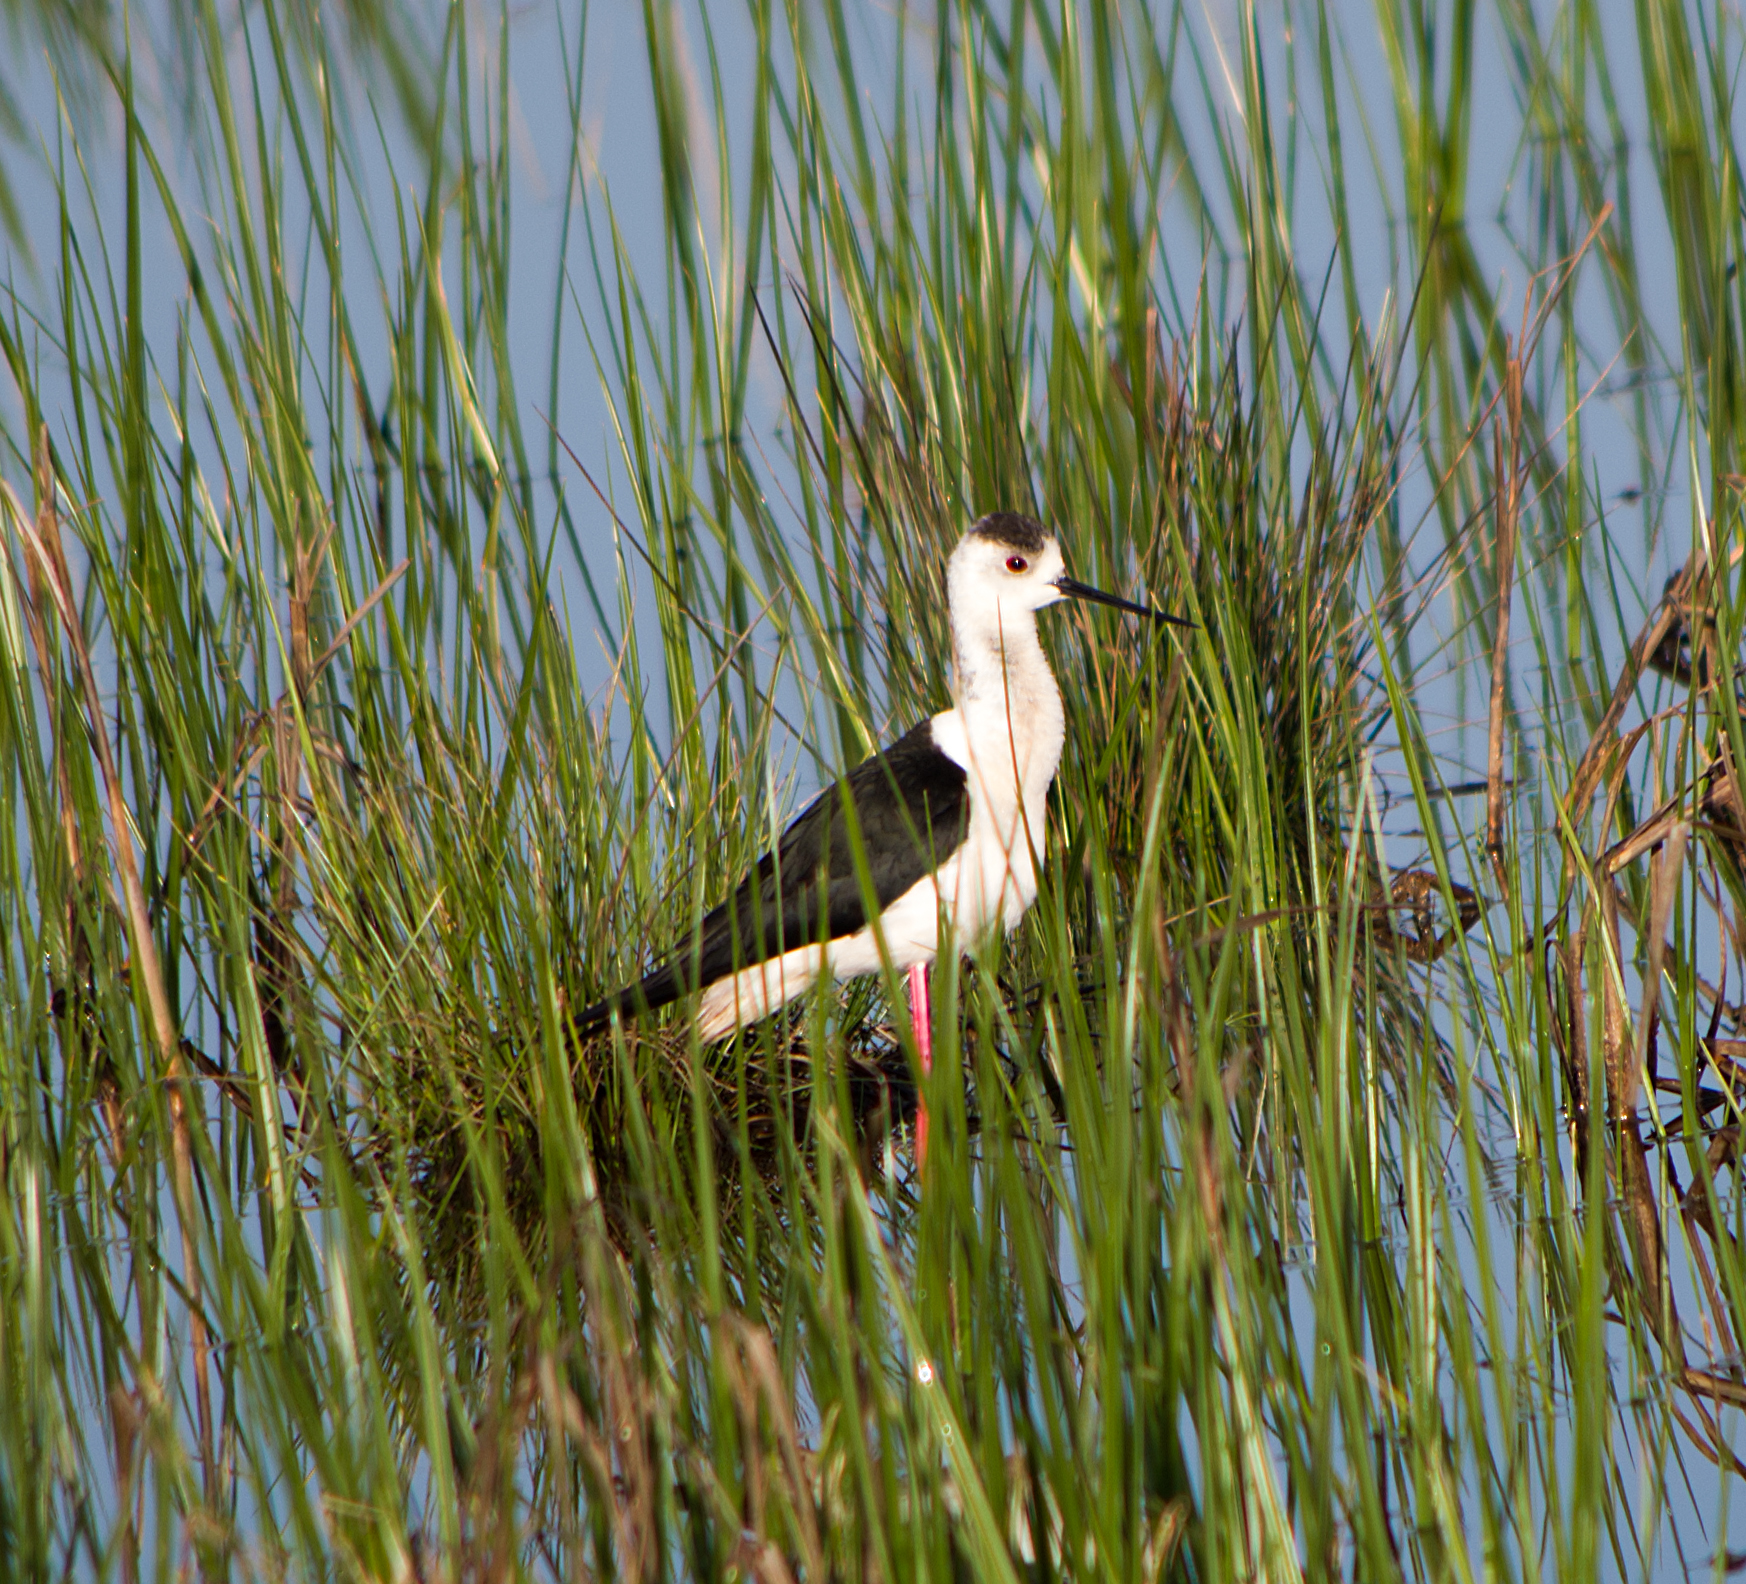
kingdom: Animalia
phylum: Chordata
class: Aves
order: Charadriiformes
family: Recurvirostridae
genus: Himantopus
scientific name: Himantopus himantopus
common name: Black-winged stilt
